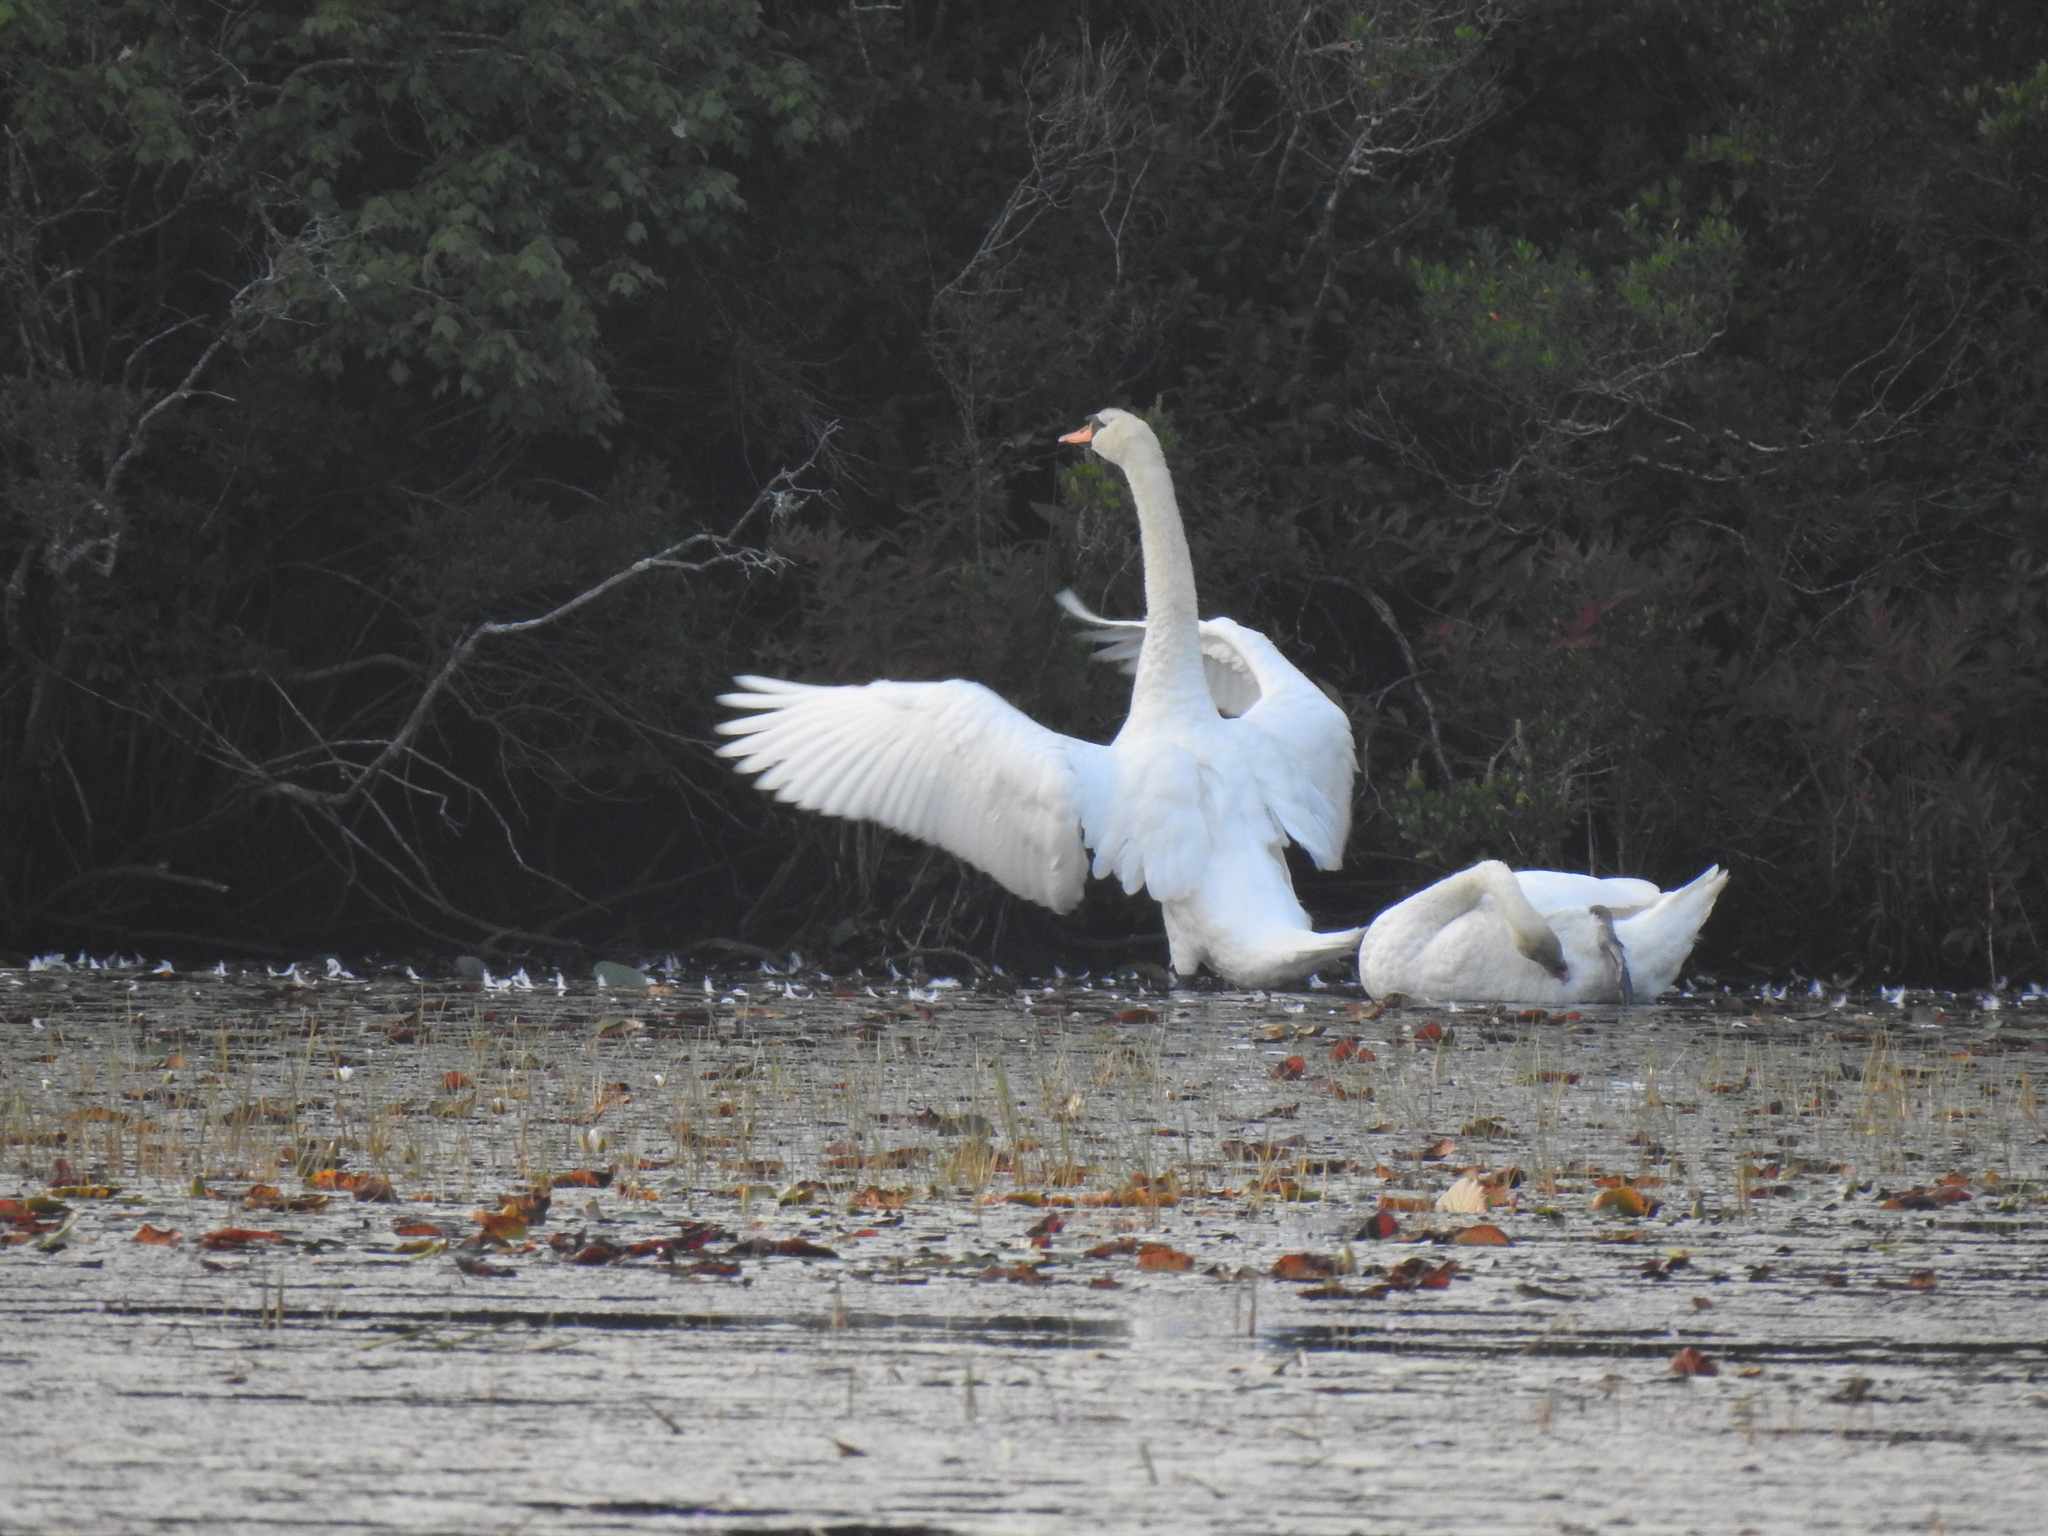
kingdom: Animalia
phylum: Chordata
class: Aves
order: Anseriformes
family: Anatidae
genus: Cygnus
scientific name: Cygnus olor
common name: Mute swan
